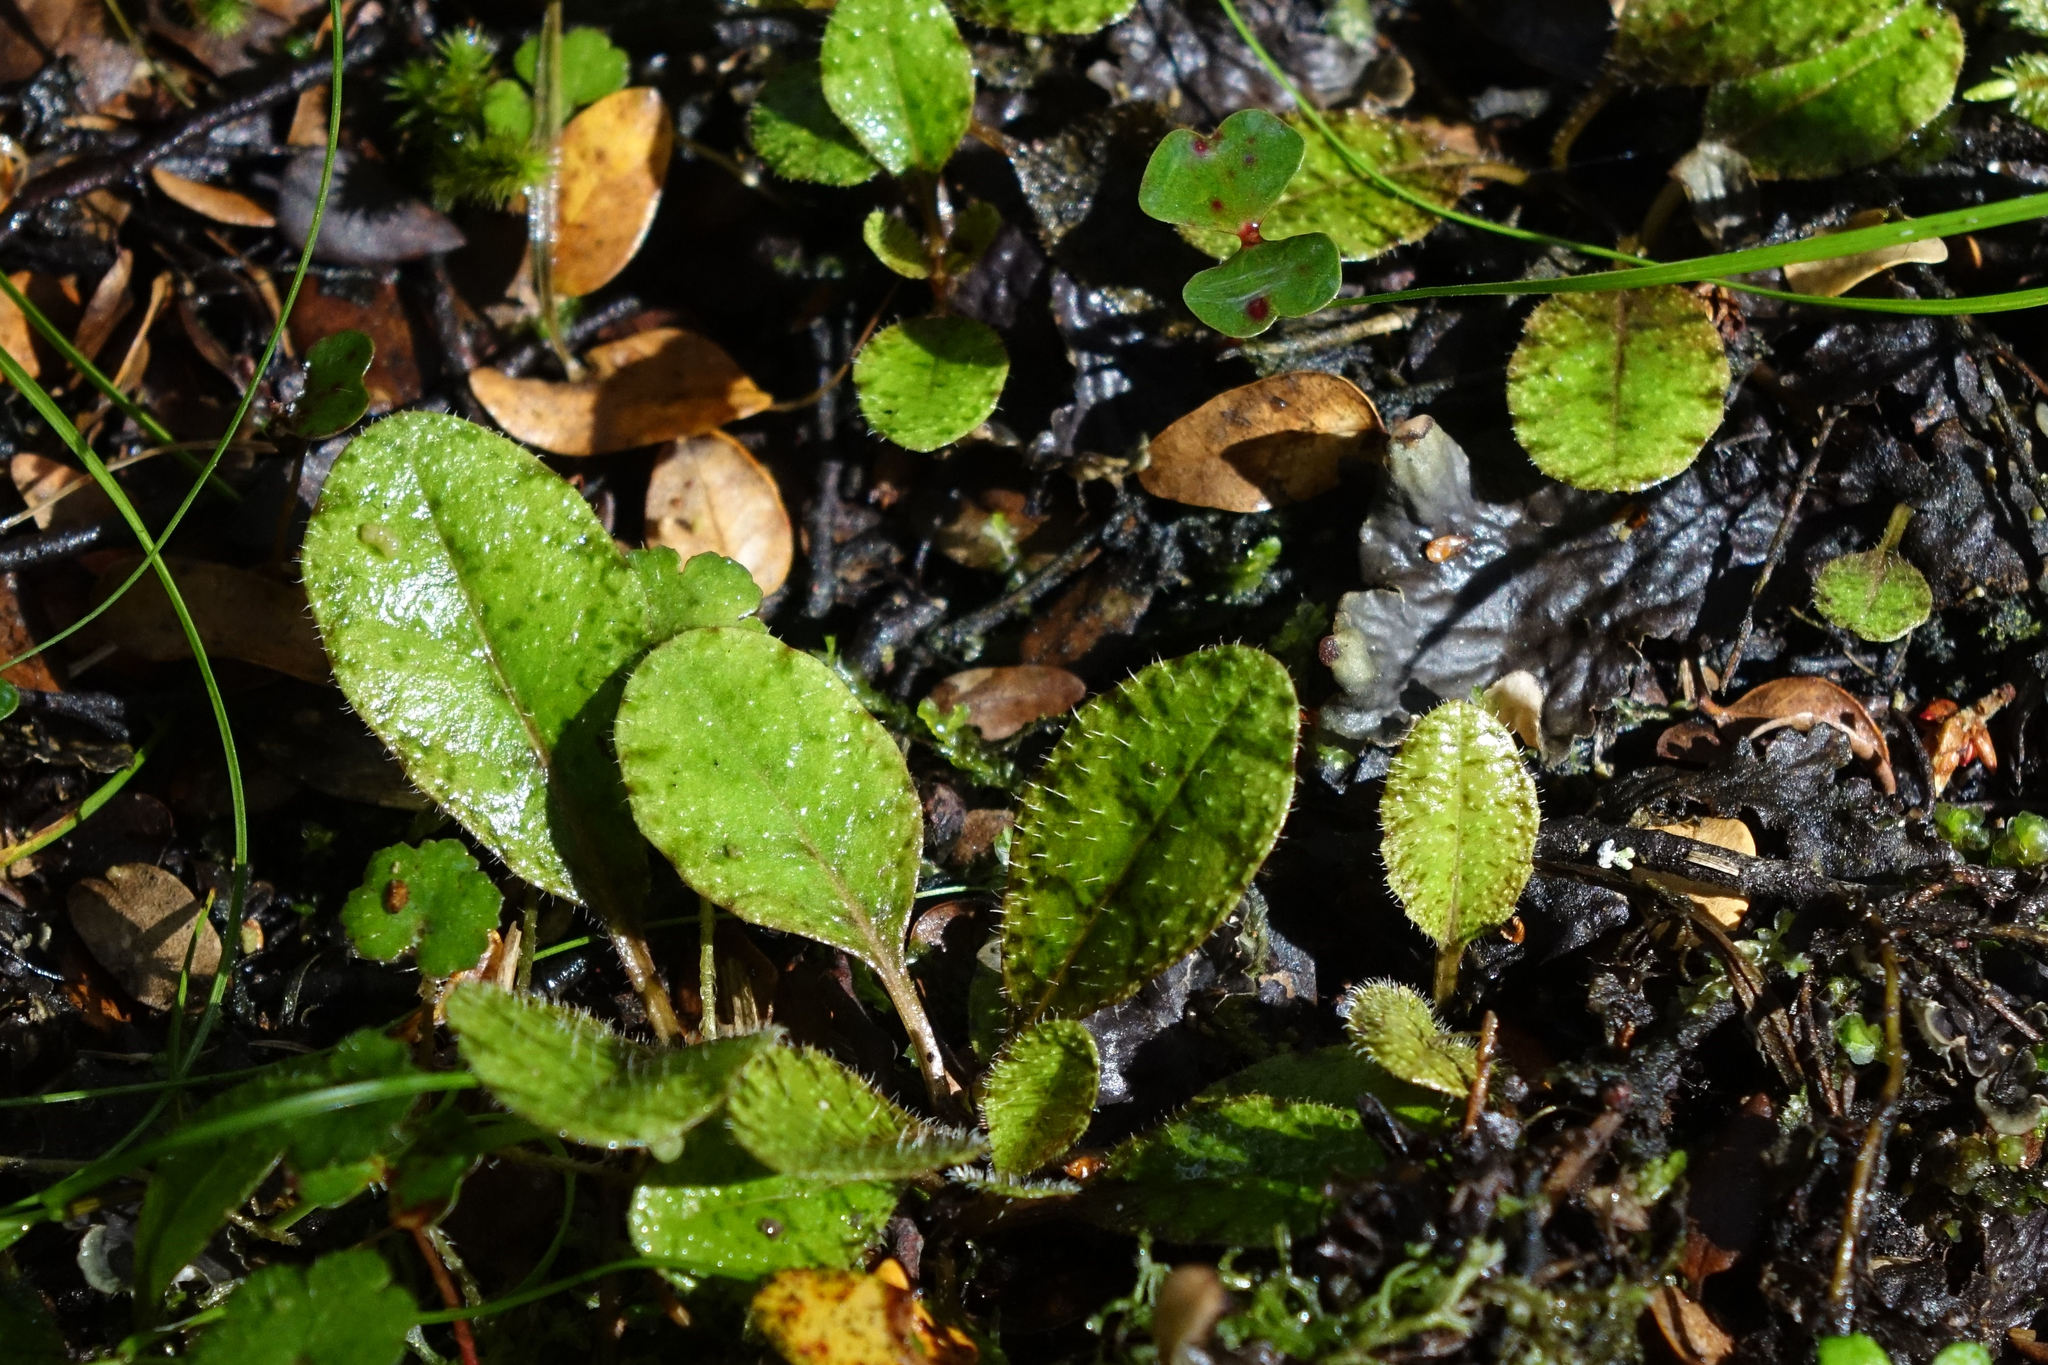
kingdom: Plantae
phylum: Tracheophyta
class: Magnoliopsida
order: Lamiales
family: Mazaceae
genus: Mazus
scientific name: Mazus radicans
